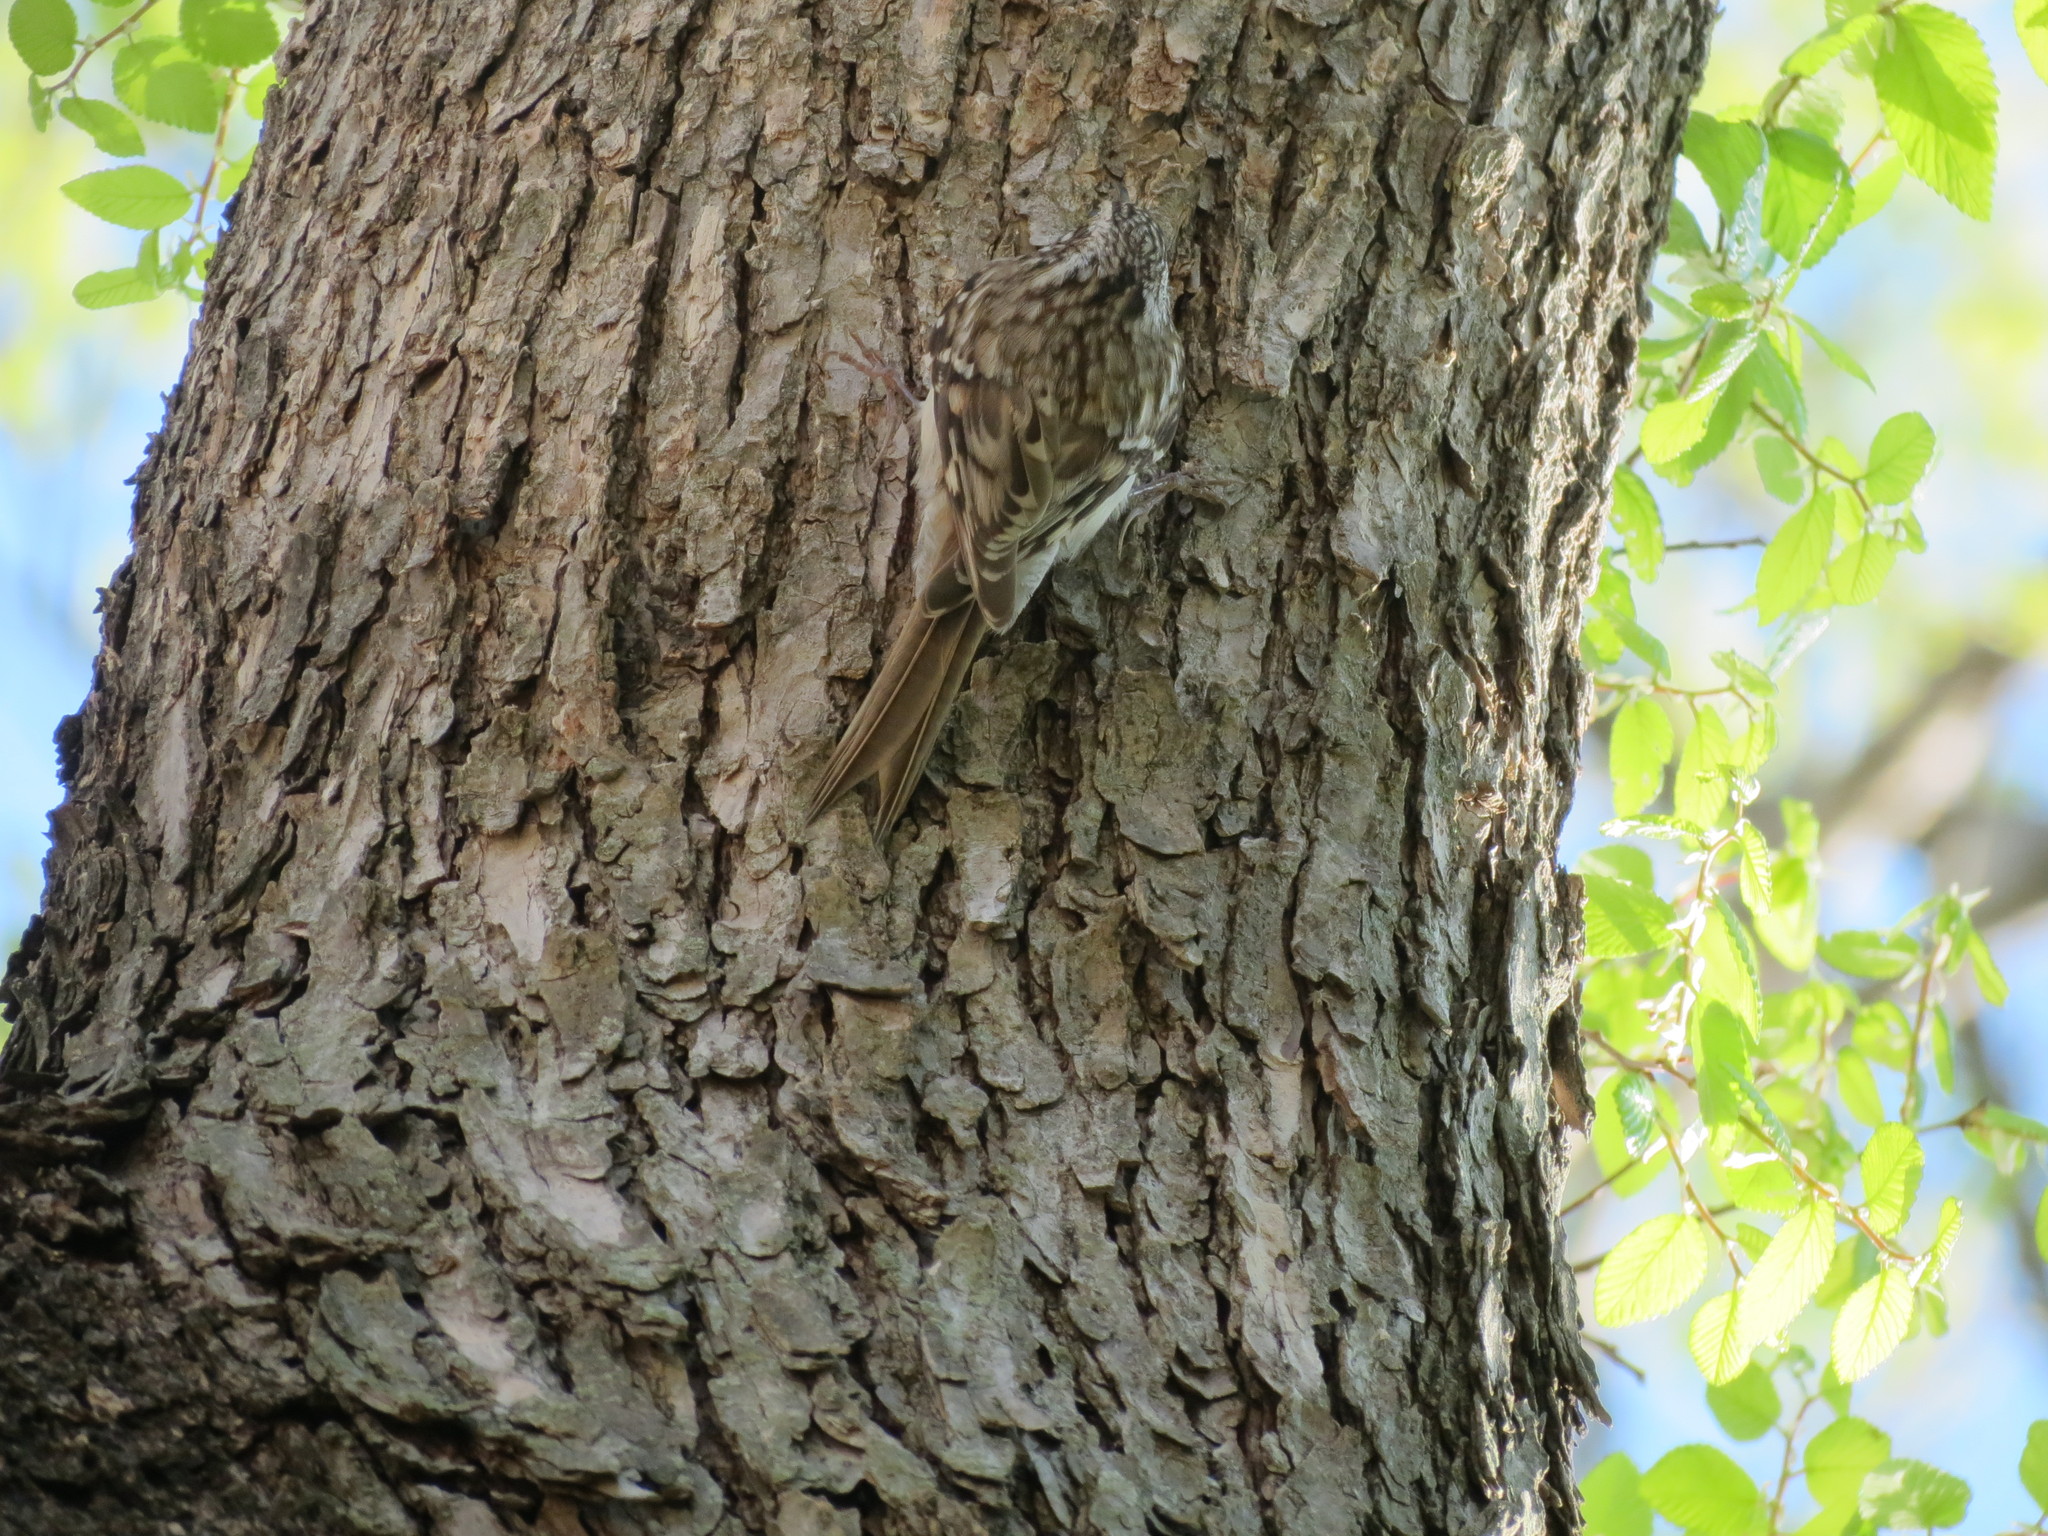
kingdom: Animalia
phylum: Chordata
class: Aves
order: Passeriformes
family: Certhiidae
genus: Certhia
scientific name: Certhia americana
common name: Brown creeper
